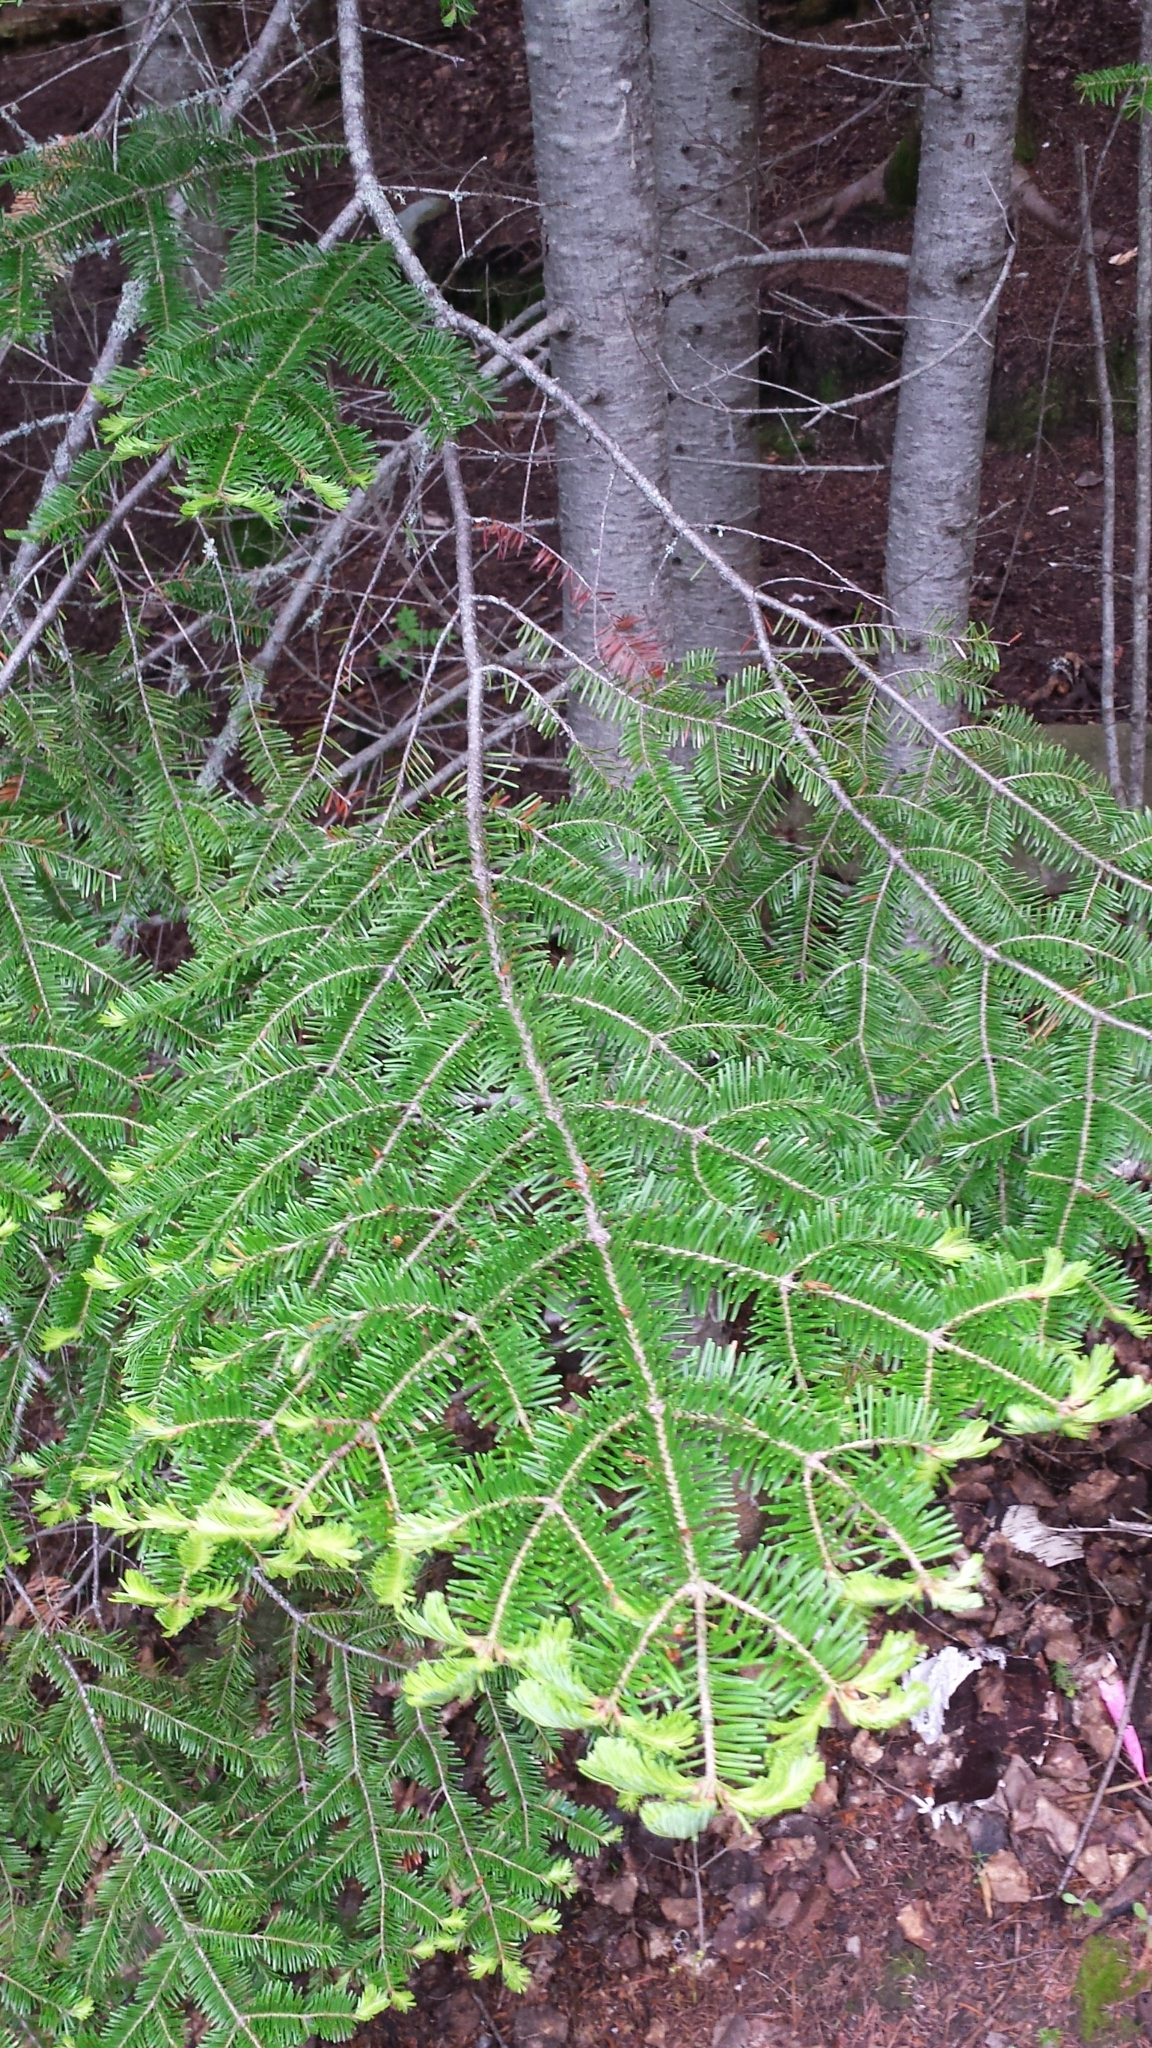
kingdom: Plantae
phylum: Tracheophyta
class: Pinopsida
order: Pinales
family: Pinaceae
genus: Abies
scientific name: Abies balsamea
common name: Balsam fir
